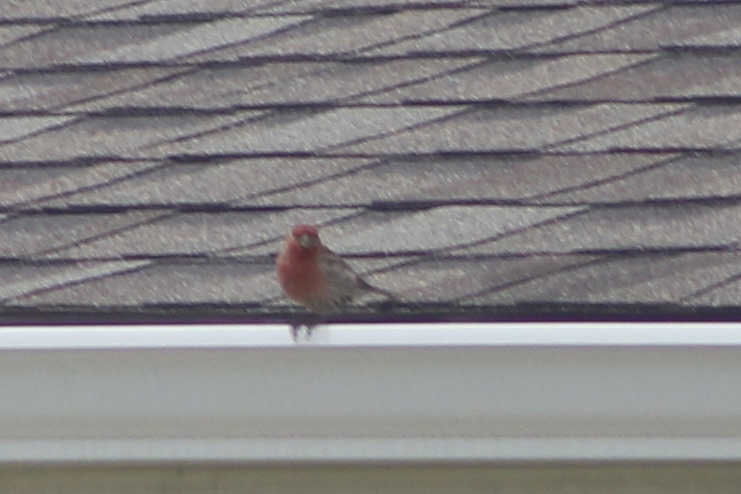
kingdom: Animalia
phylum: Chordata
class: Aves
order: Passeriformes
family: Fringillidae
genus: Haemorhous
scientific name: Haemorhous mexicanus
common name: House finch
